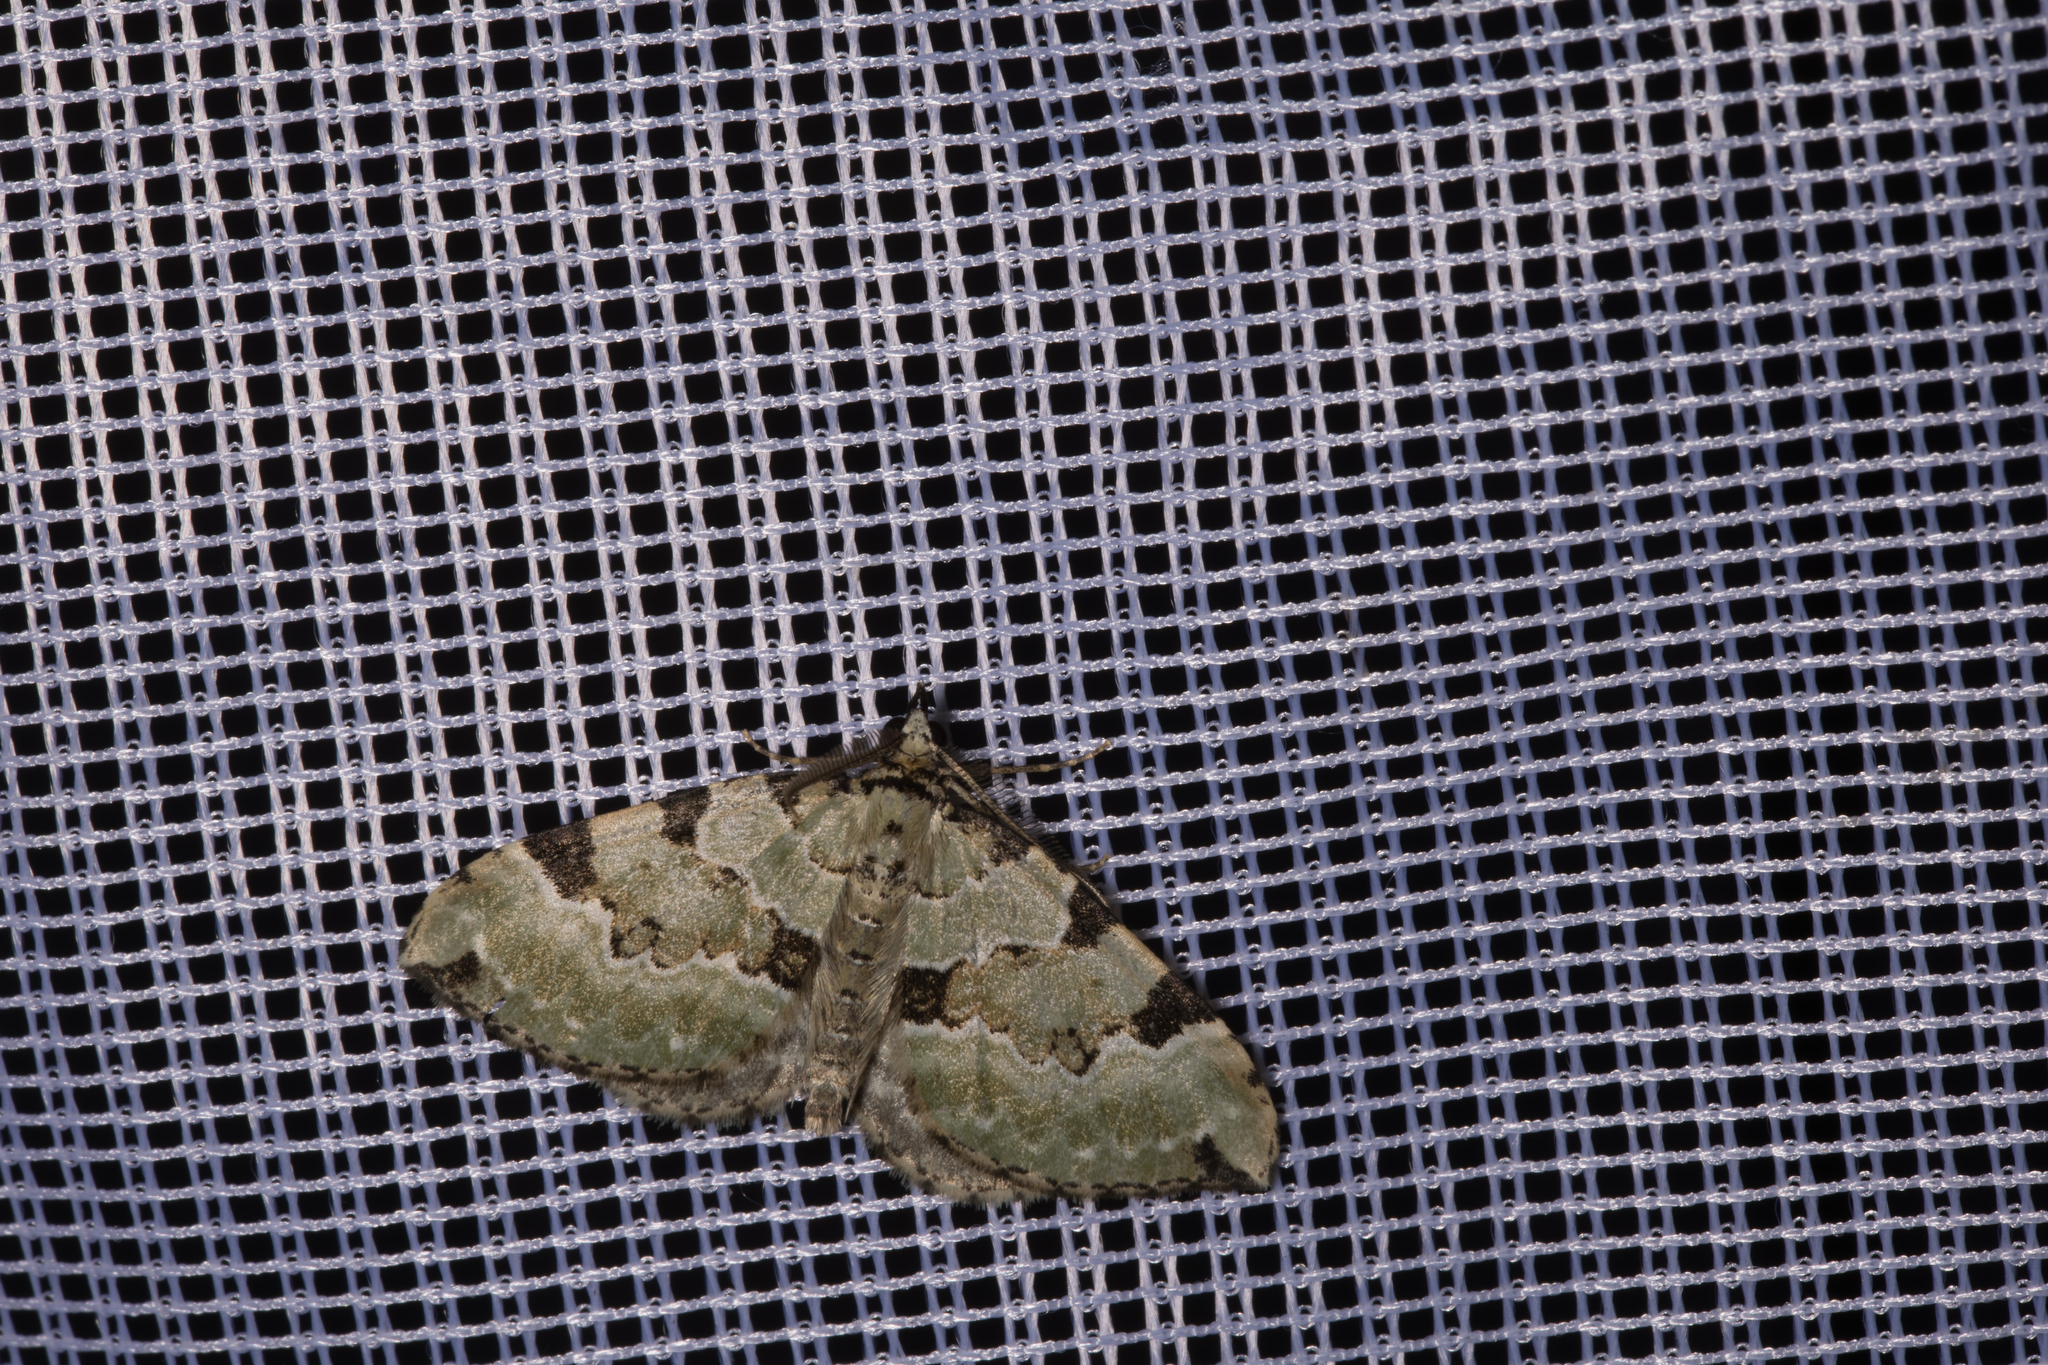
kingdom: Animalia
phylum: Arthropoda
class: Insecta
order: Lepidoptera
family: Geometridae
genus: Colostygia
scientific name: Colostygia pectinataria
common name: Green carpet
